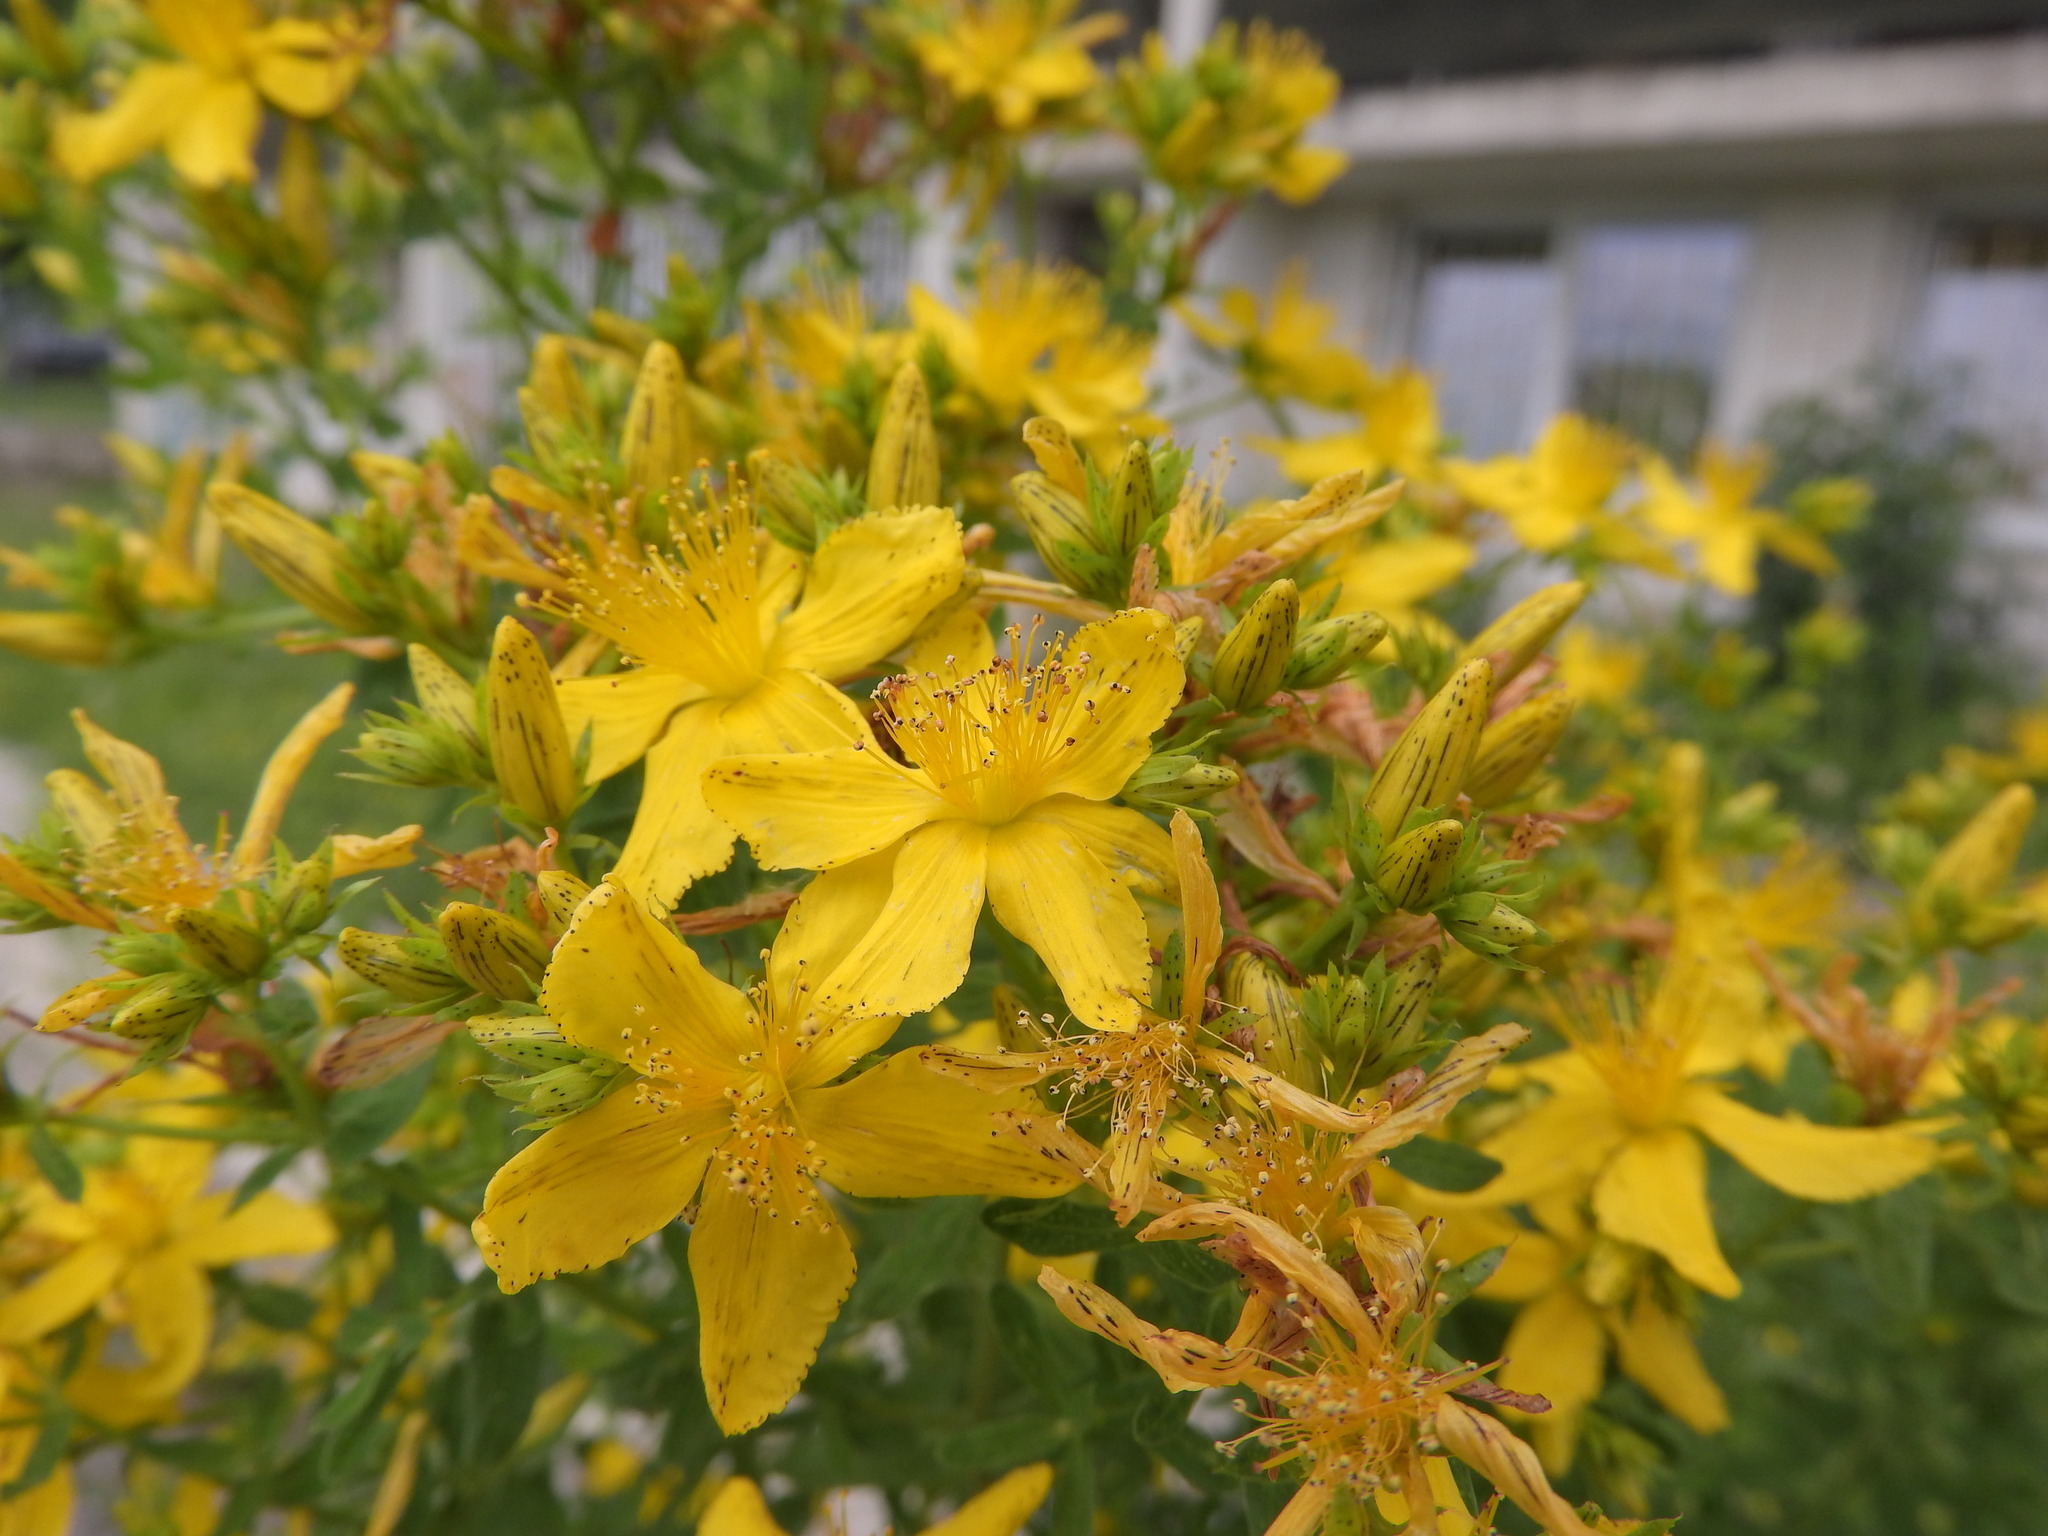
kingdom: Plantae
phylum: Tracheophyta
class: Magnoliopsida
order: Malpighiales
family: Hypericaceae
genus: Hypericum
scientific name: Hypericum perforatum
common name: Common st. johnswort
